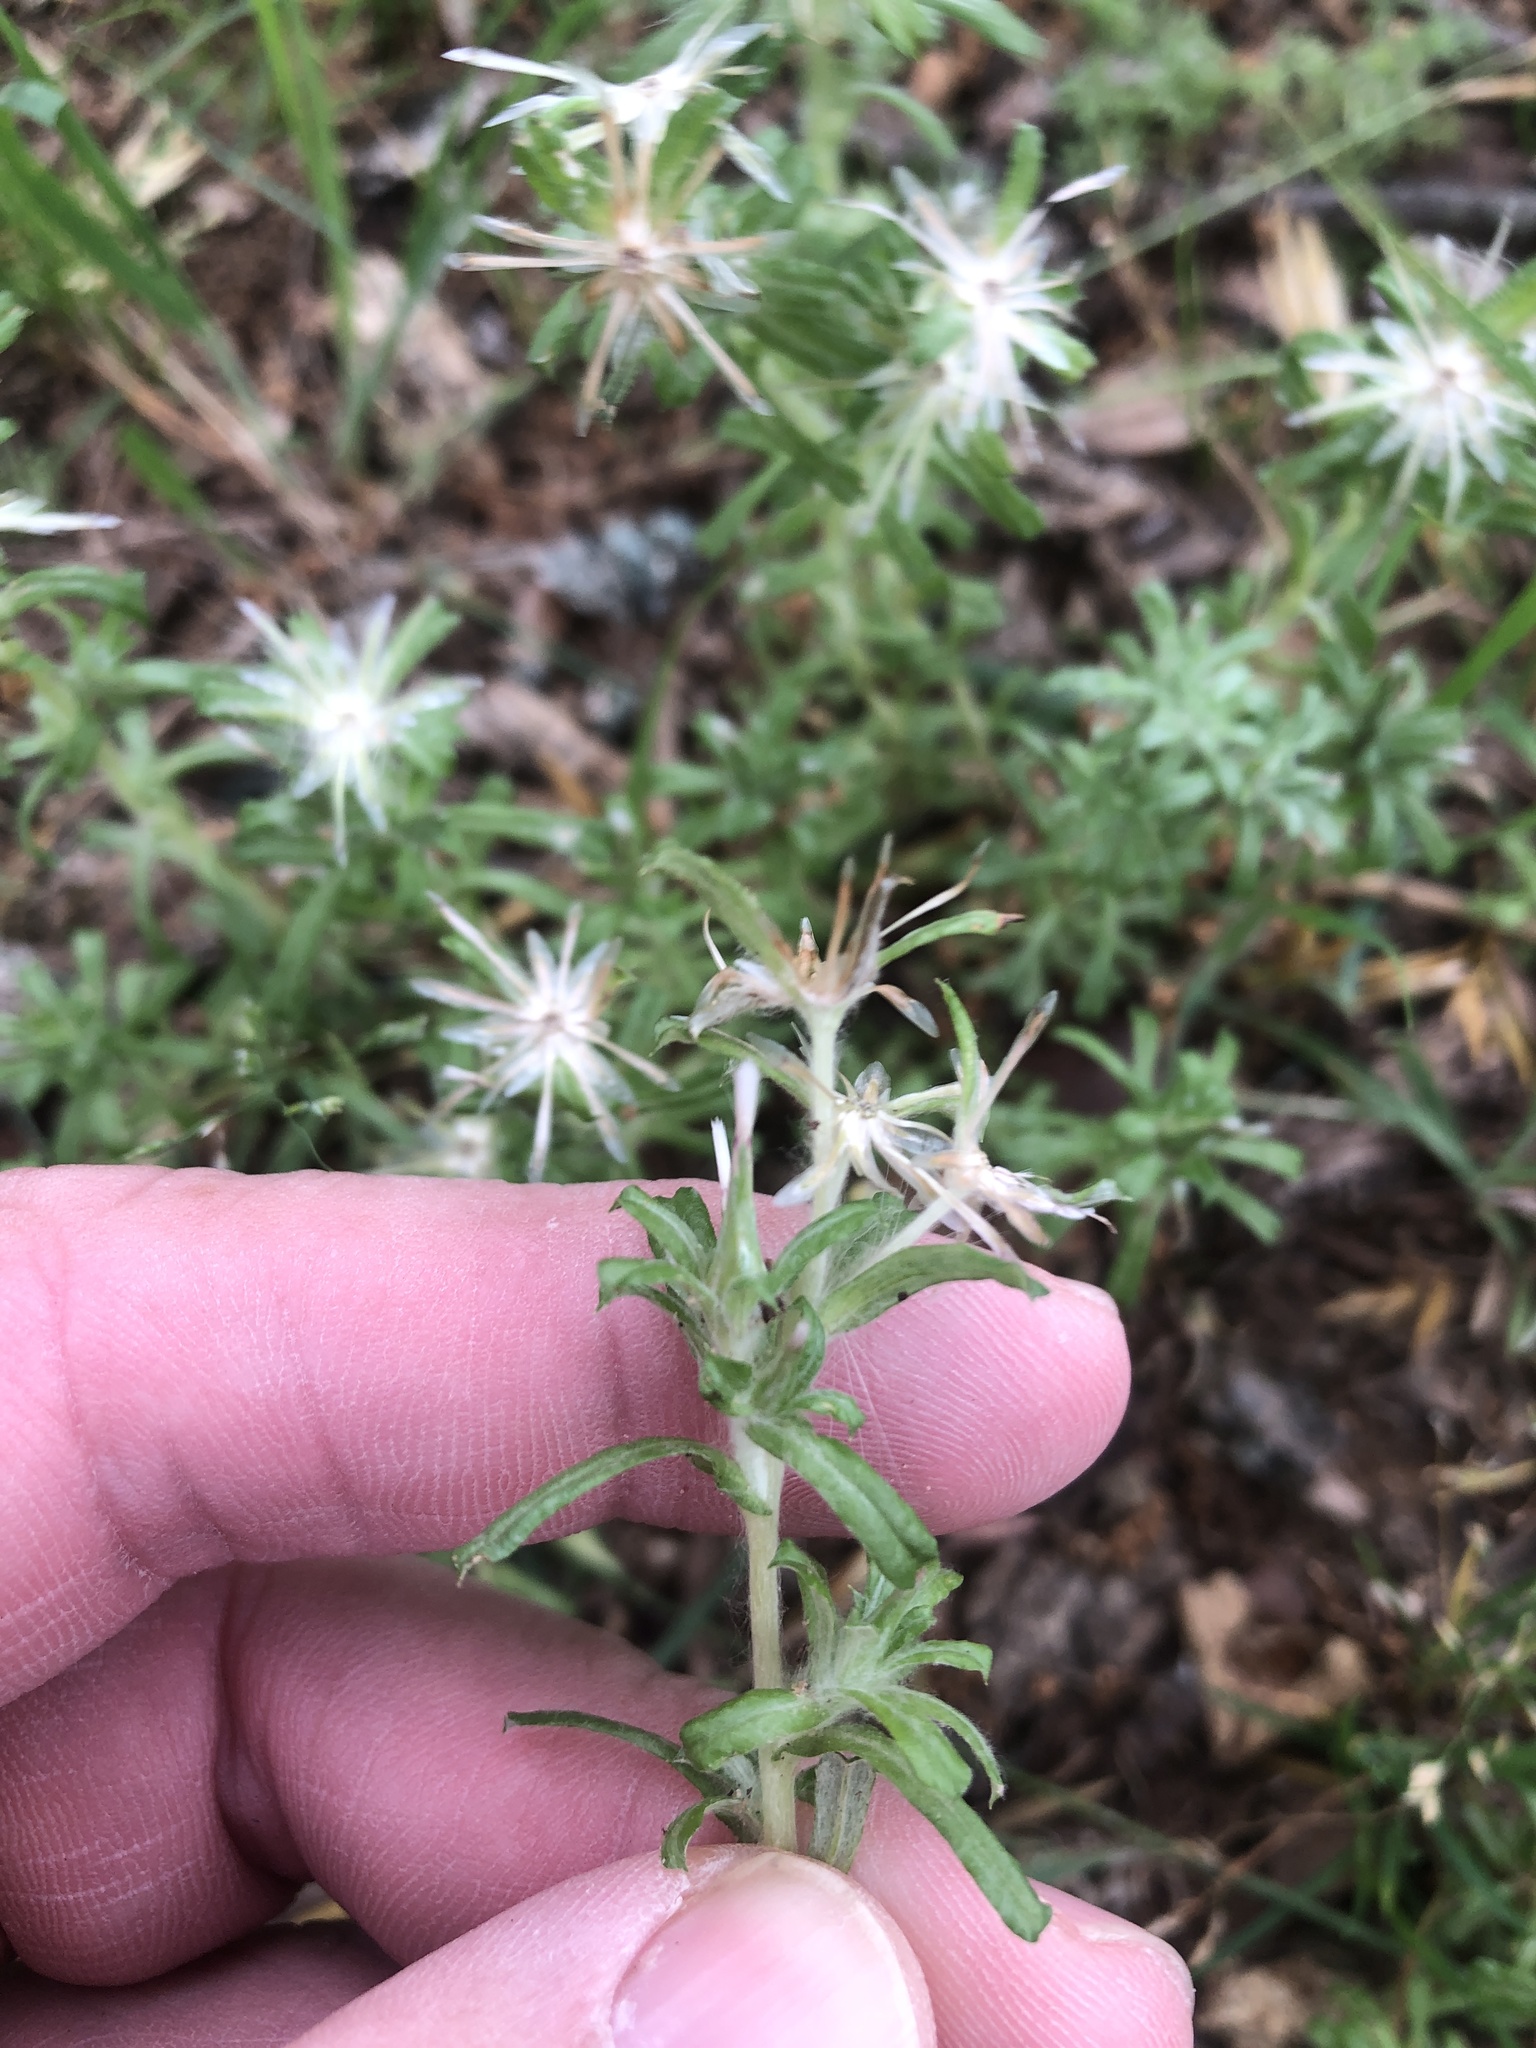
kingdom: Plantae
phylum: Tracheophyta
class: Magnoliopsida
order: Asterales
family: Asteraceae
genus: Facelis
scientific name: Facelis retusa
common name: Annual trampweed
